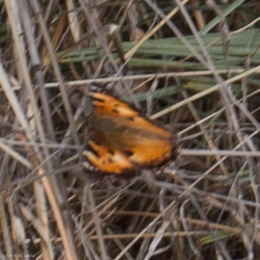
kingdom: Animalia
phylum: Arthropoda
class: Insecta
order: Lepidoptera
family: Nymphalidae
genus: Nymphalis
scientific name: Nymphalis californica
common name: California tortoiseshell
